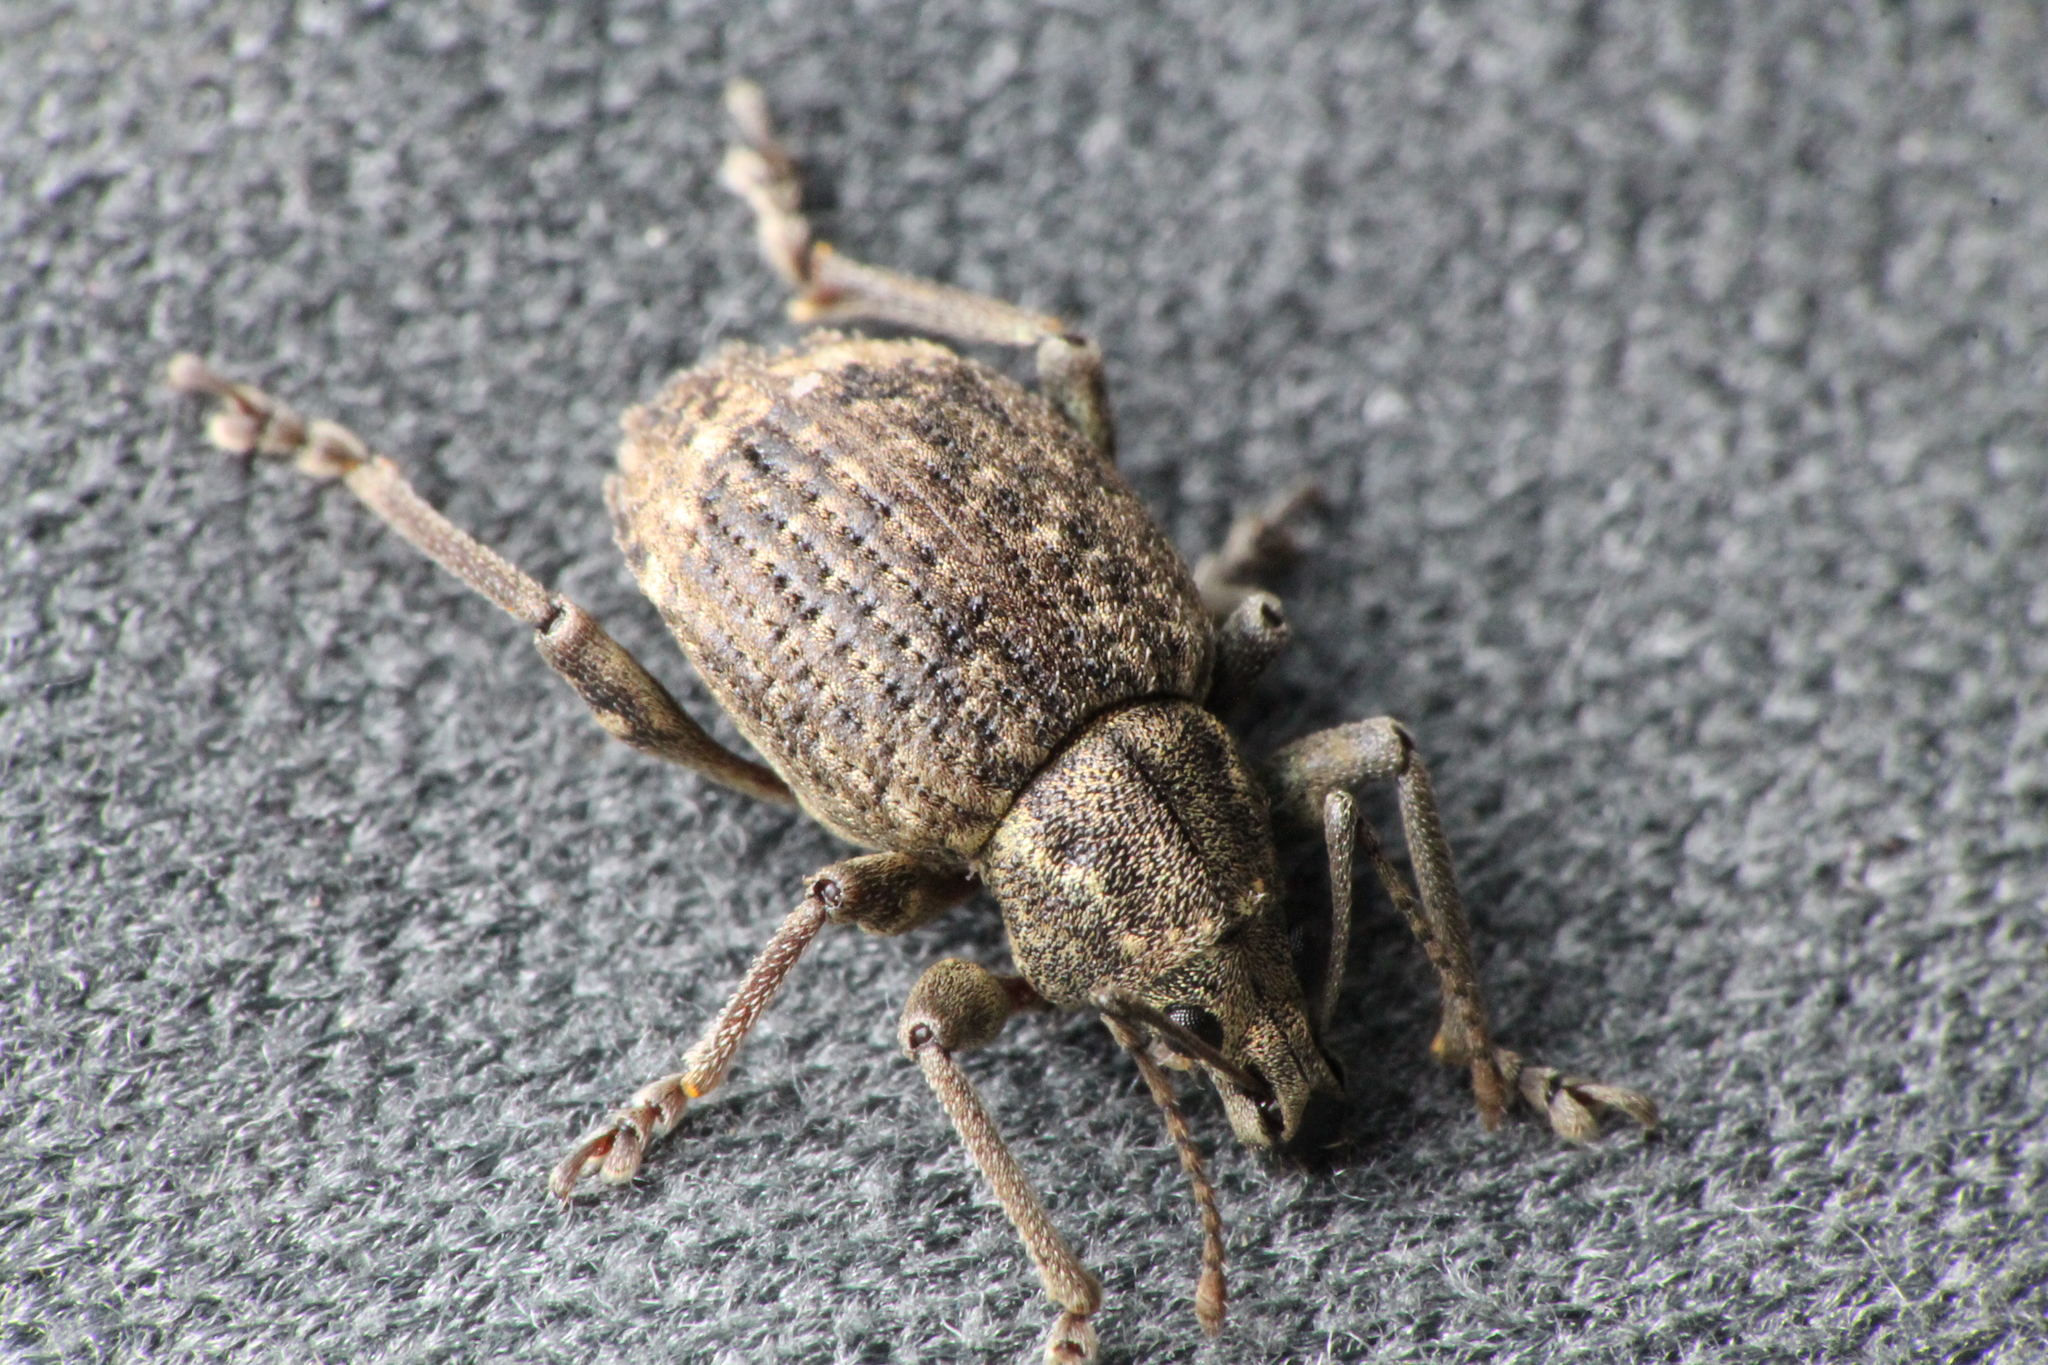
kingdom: Animalia
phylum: Arthropoda
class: Insecta
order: Coleoptera
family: Curculionidae
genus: Phlyctinus
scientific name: Phlyctinus callosus
